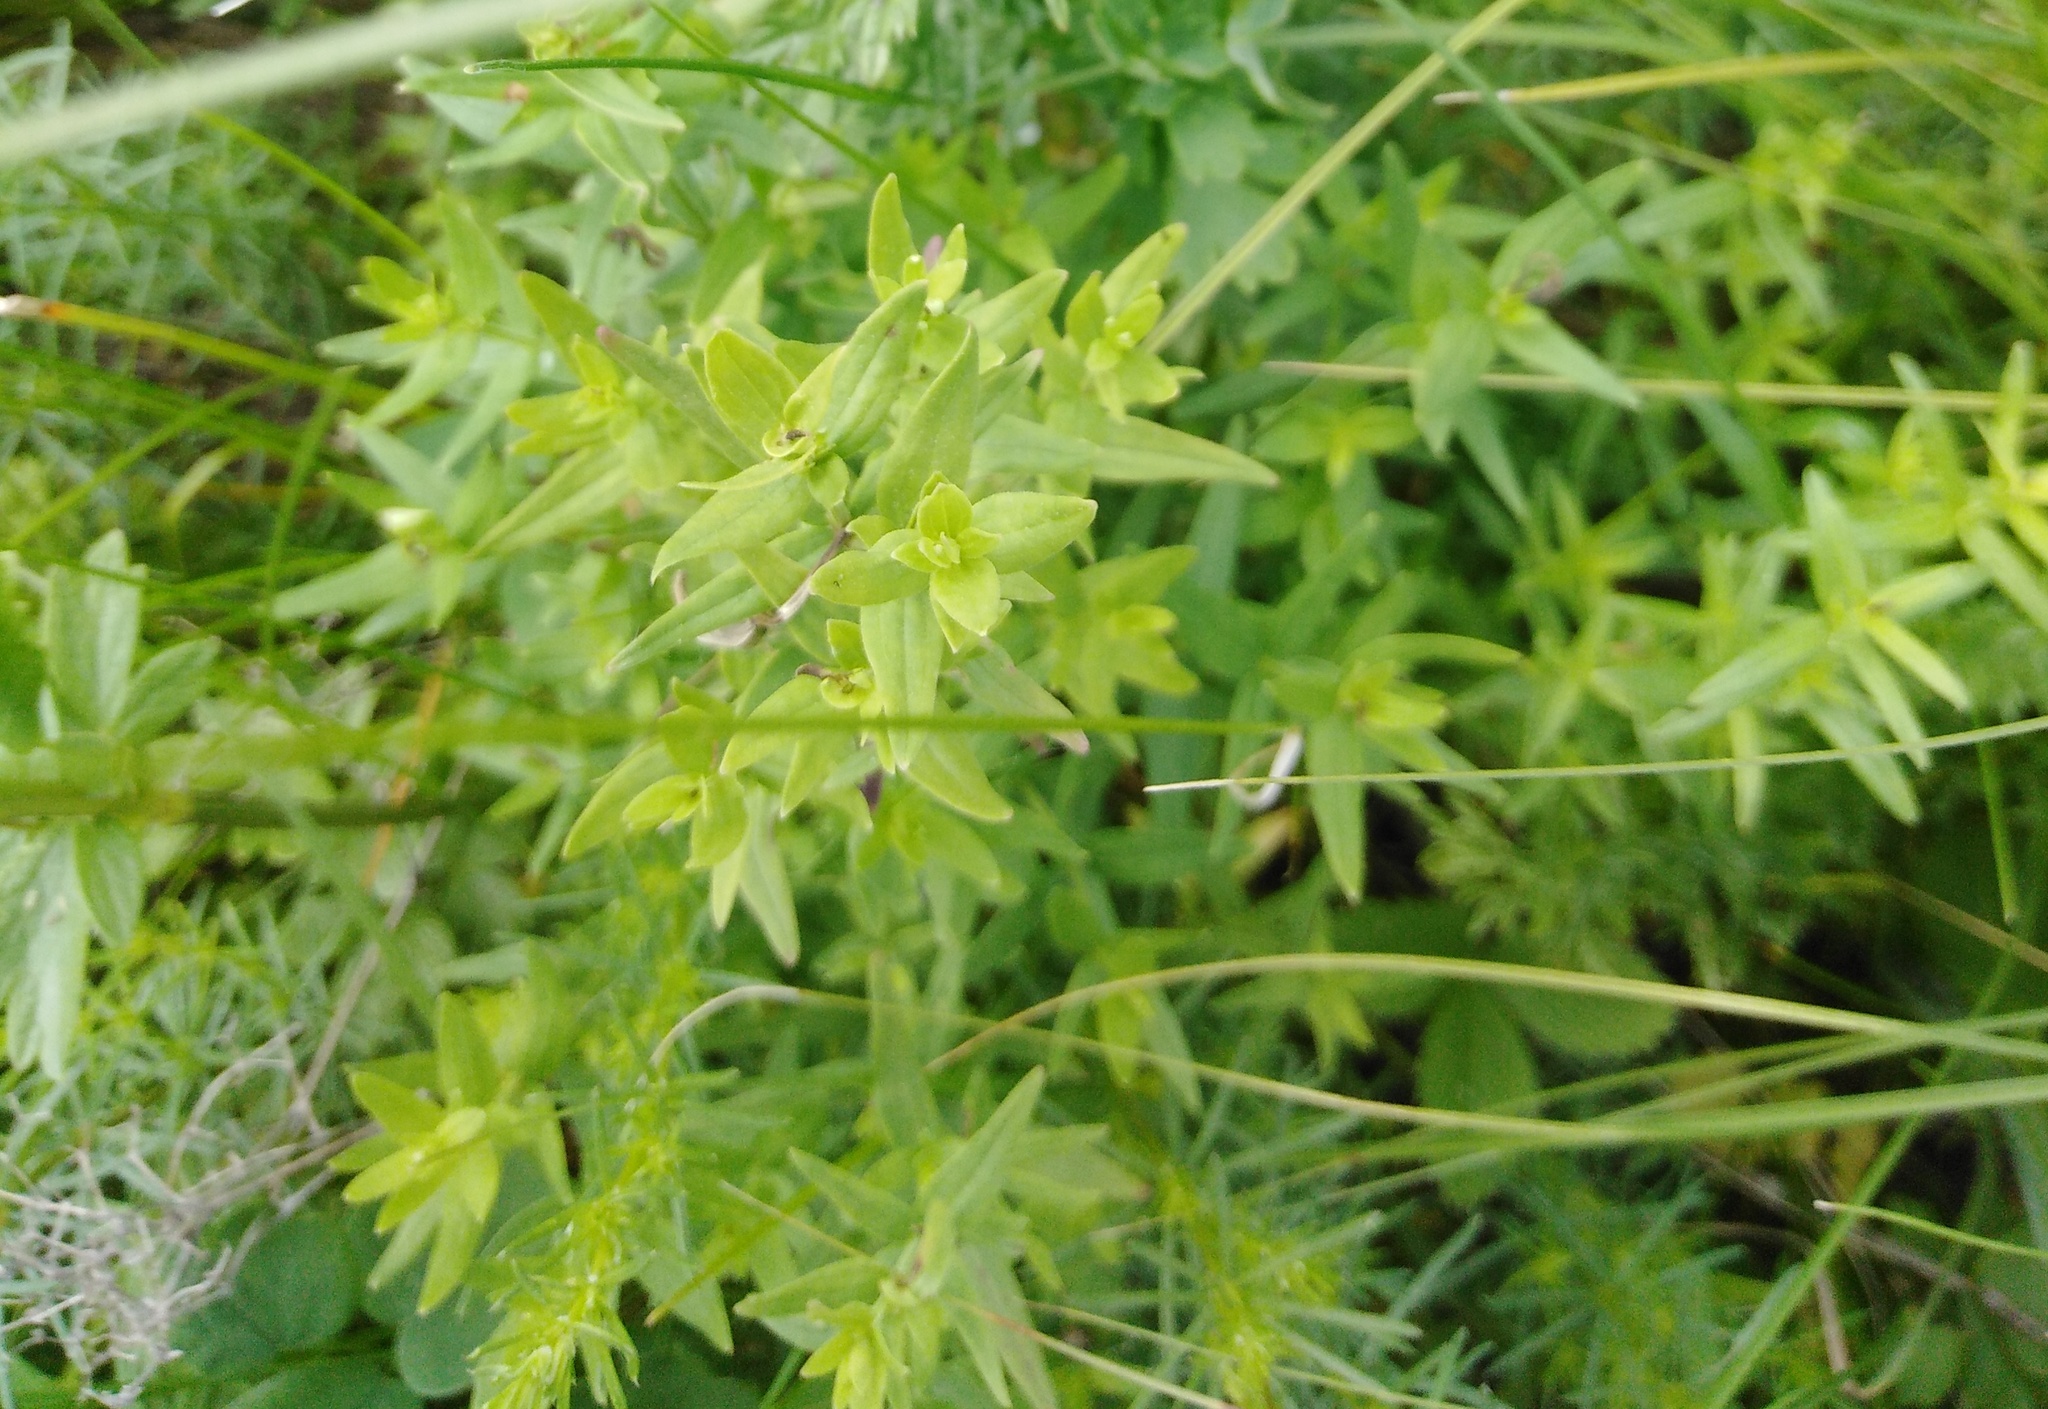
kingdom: Plantae
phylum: Tracheophyta
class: Magnoliopsida
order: Gentianales
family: Rubiaceae
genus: Galium
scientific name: Galium boreale
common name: Northern bedstraw
